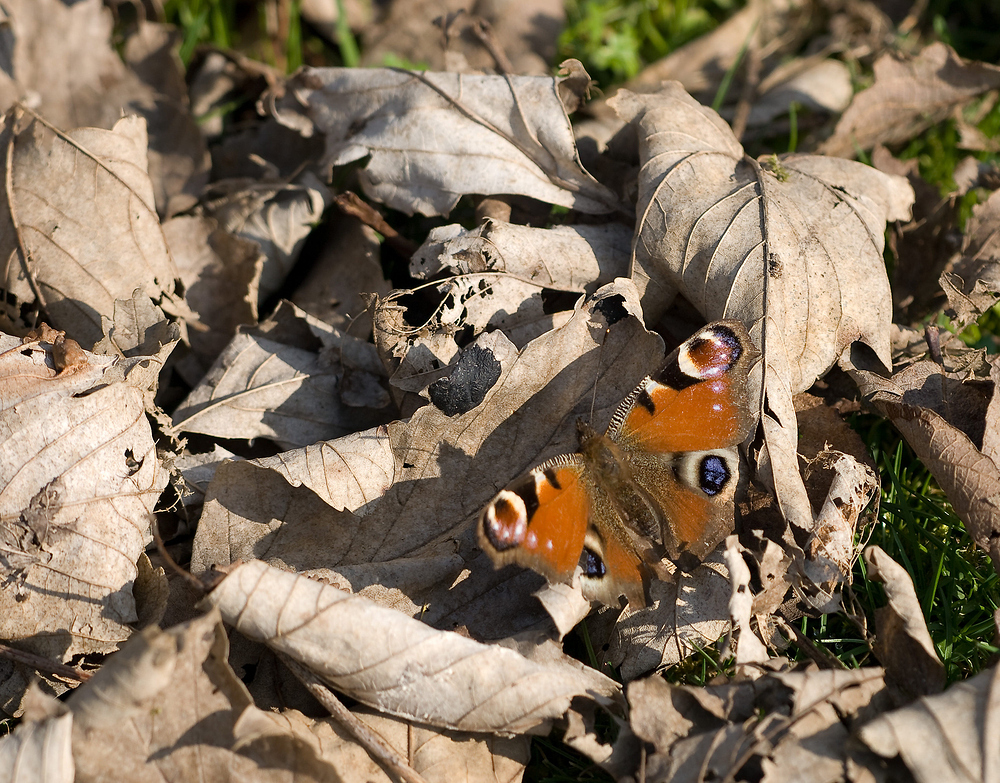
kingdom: Animalia
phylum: Arthropoda
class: Insecta
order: Lepidoptera
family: Nymphalidae
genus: Aglais
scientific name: Aglais io
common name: Peacock
